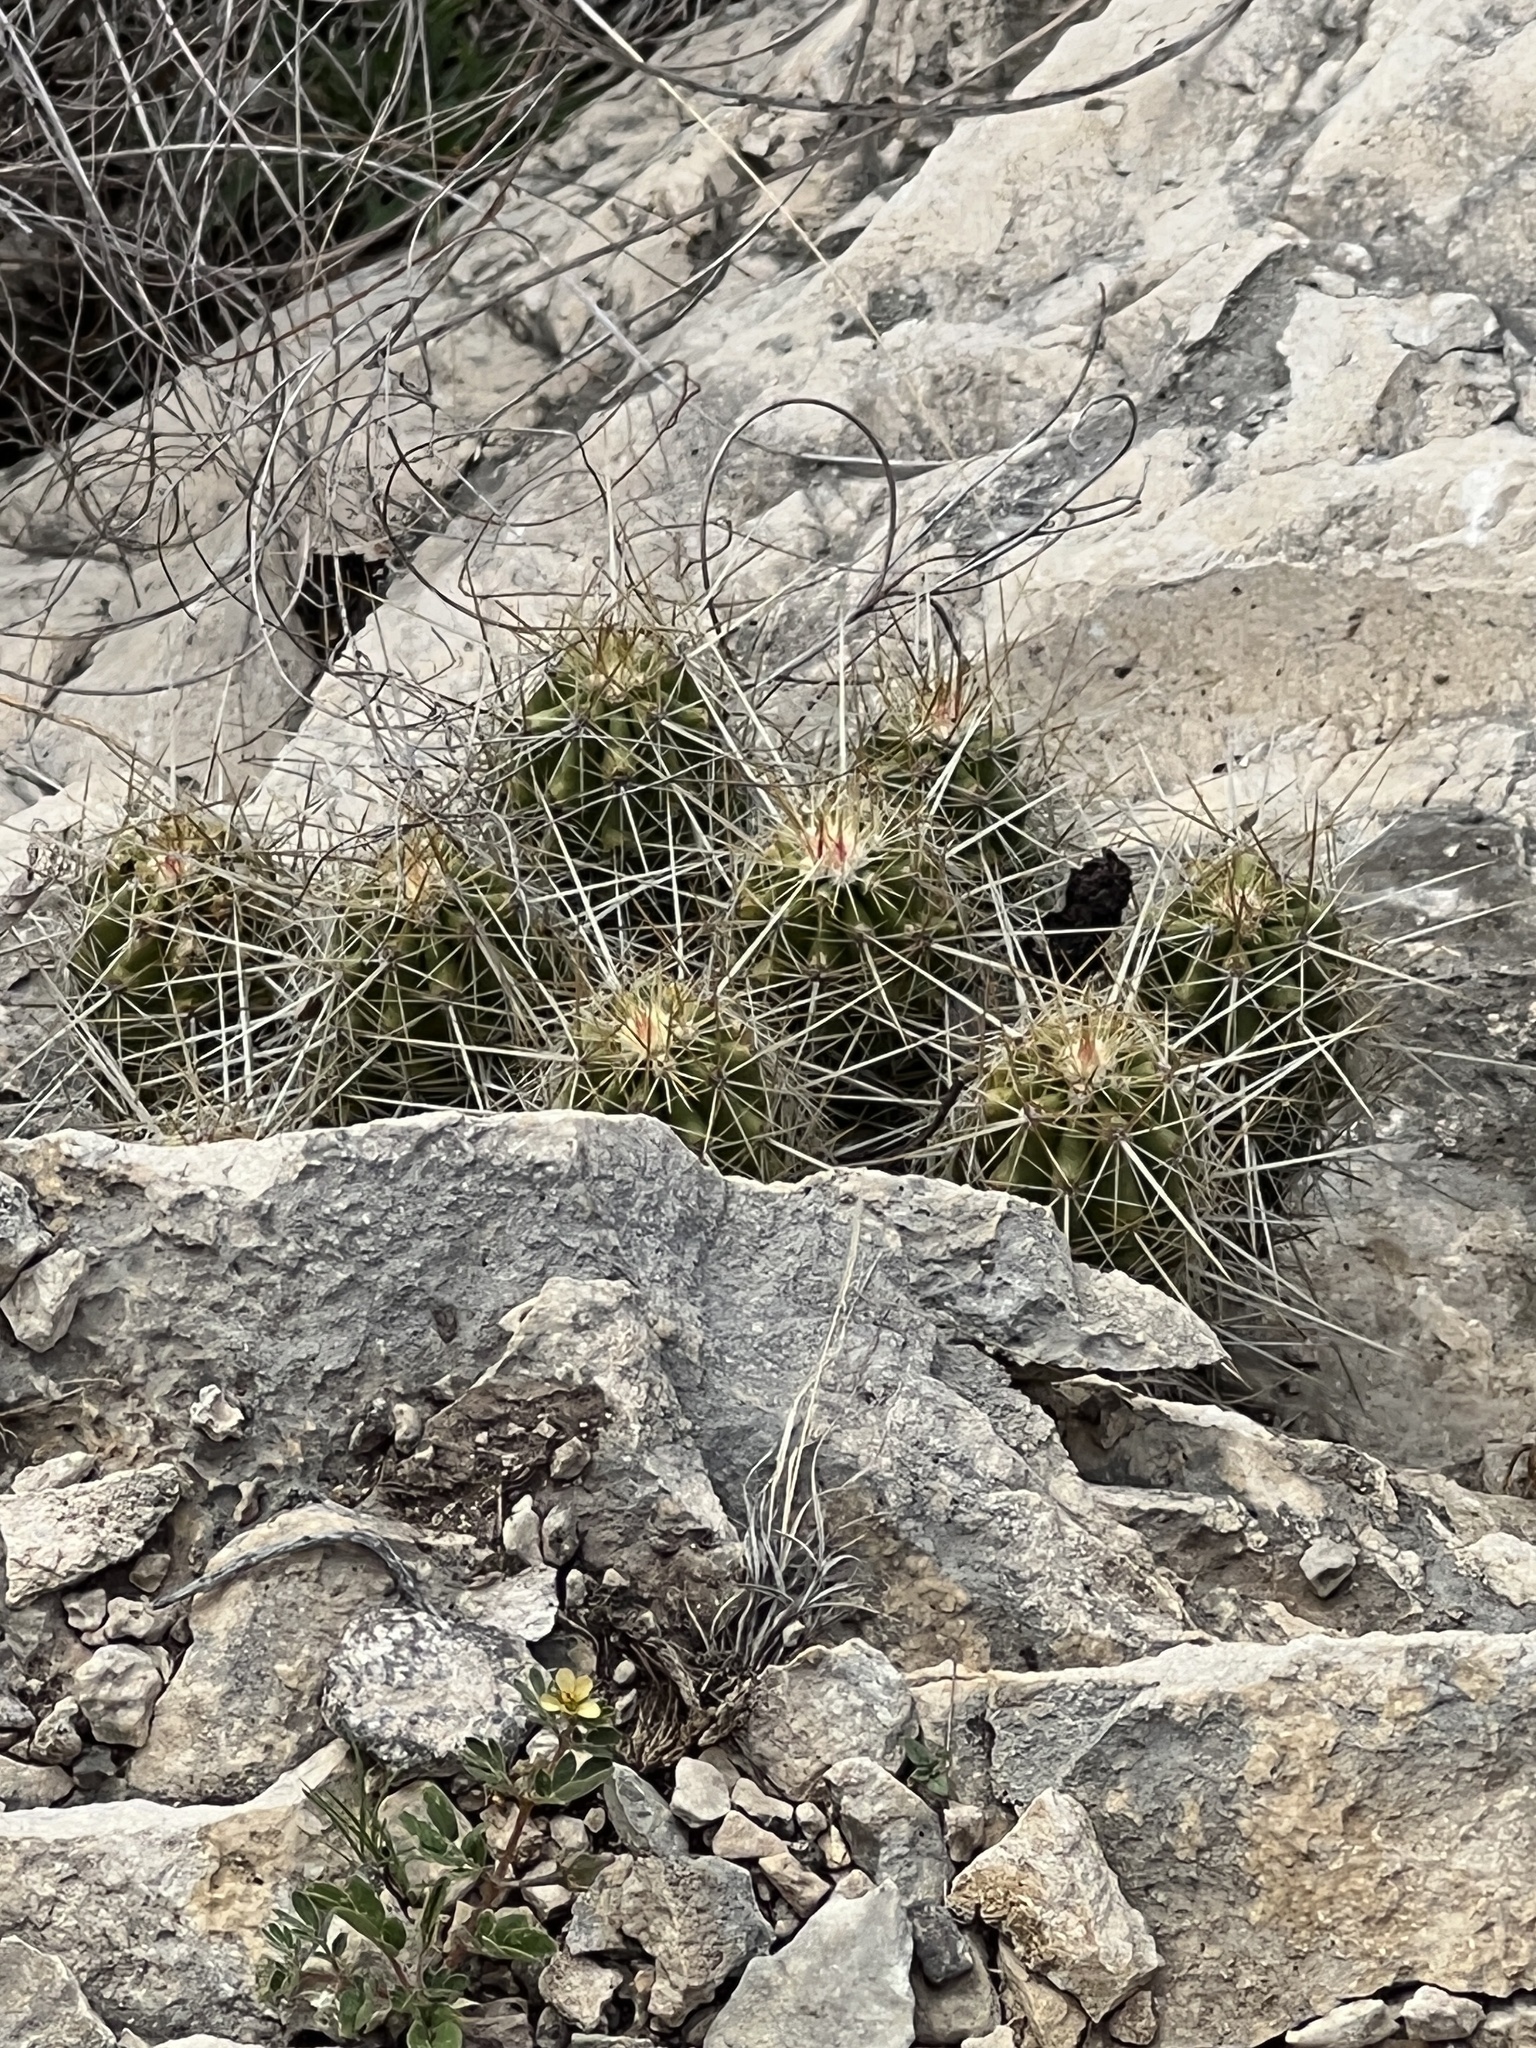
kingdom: Plantae
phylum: Tracheophyta
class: Magnoliopsida
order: Caryophyllales
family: Cactaceae
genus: Echinocereus
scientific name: Echinocereus enneacanthus
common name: Pitaya
